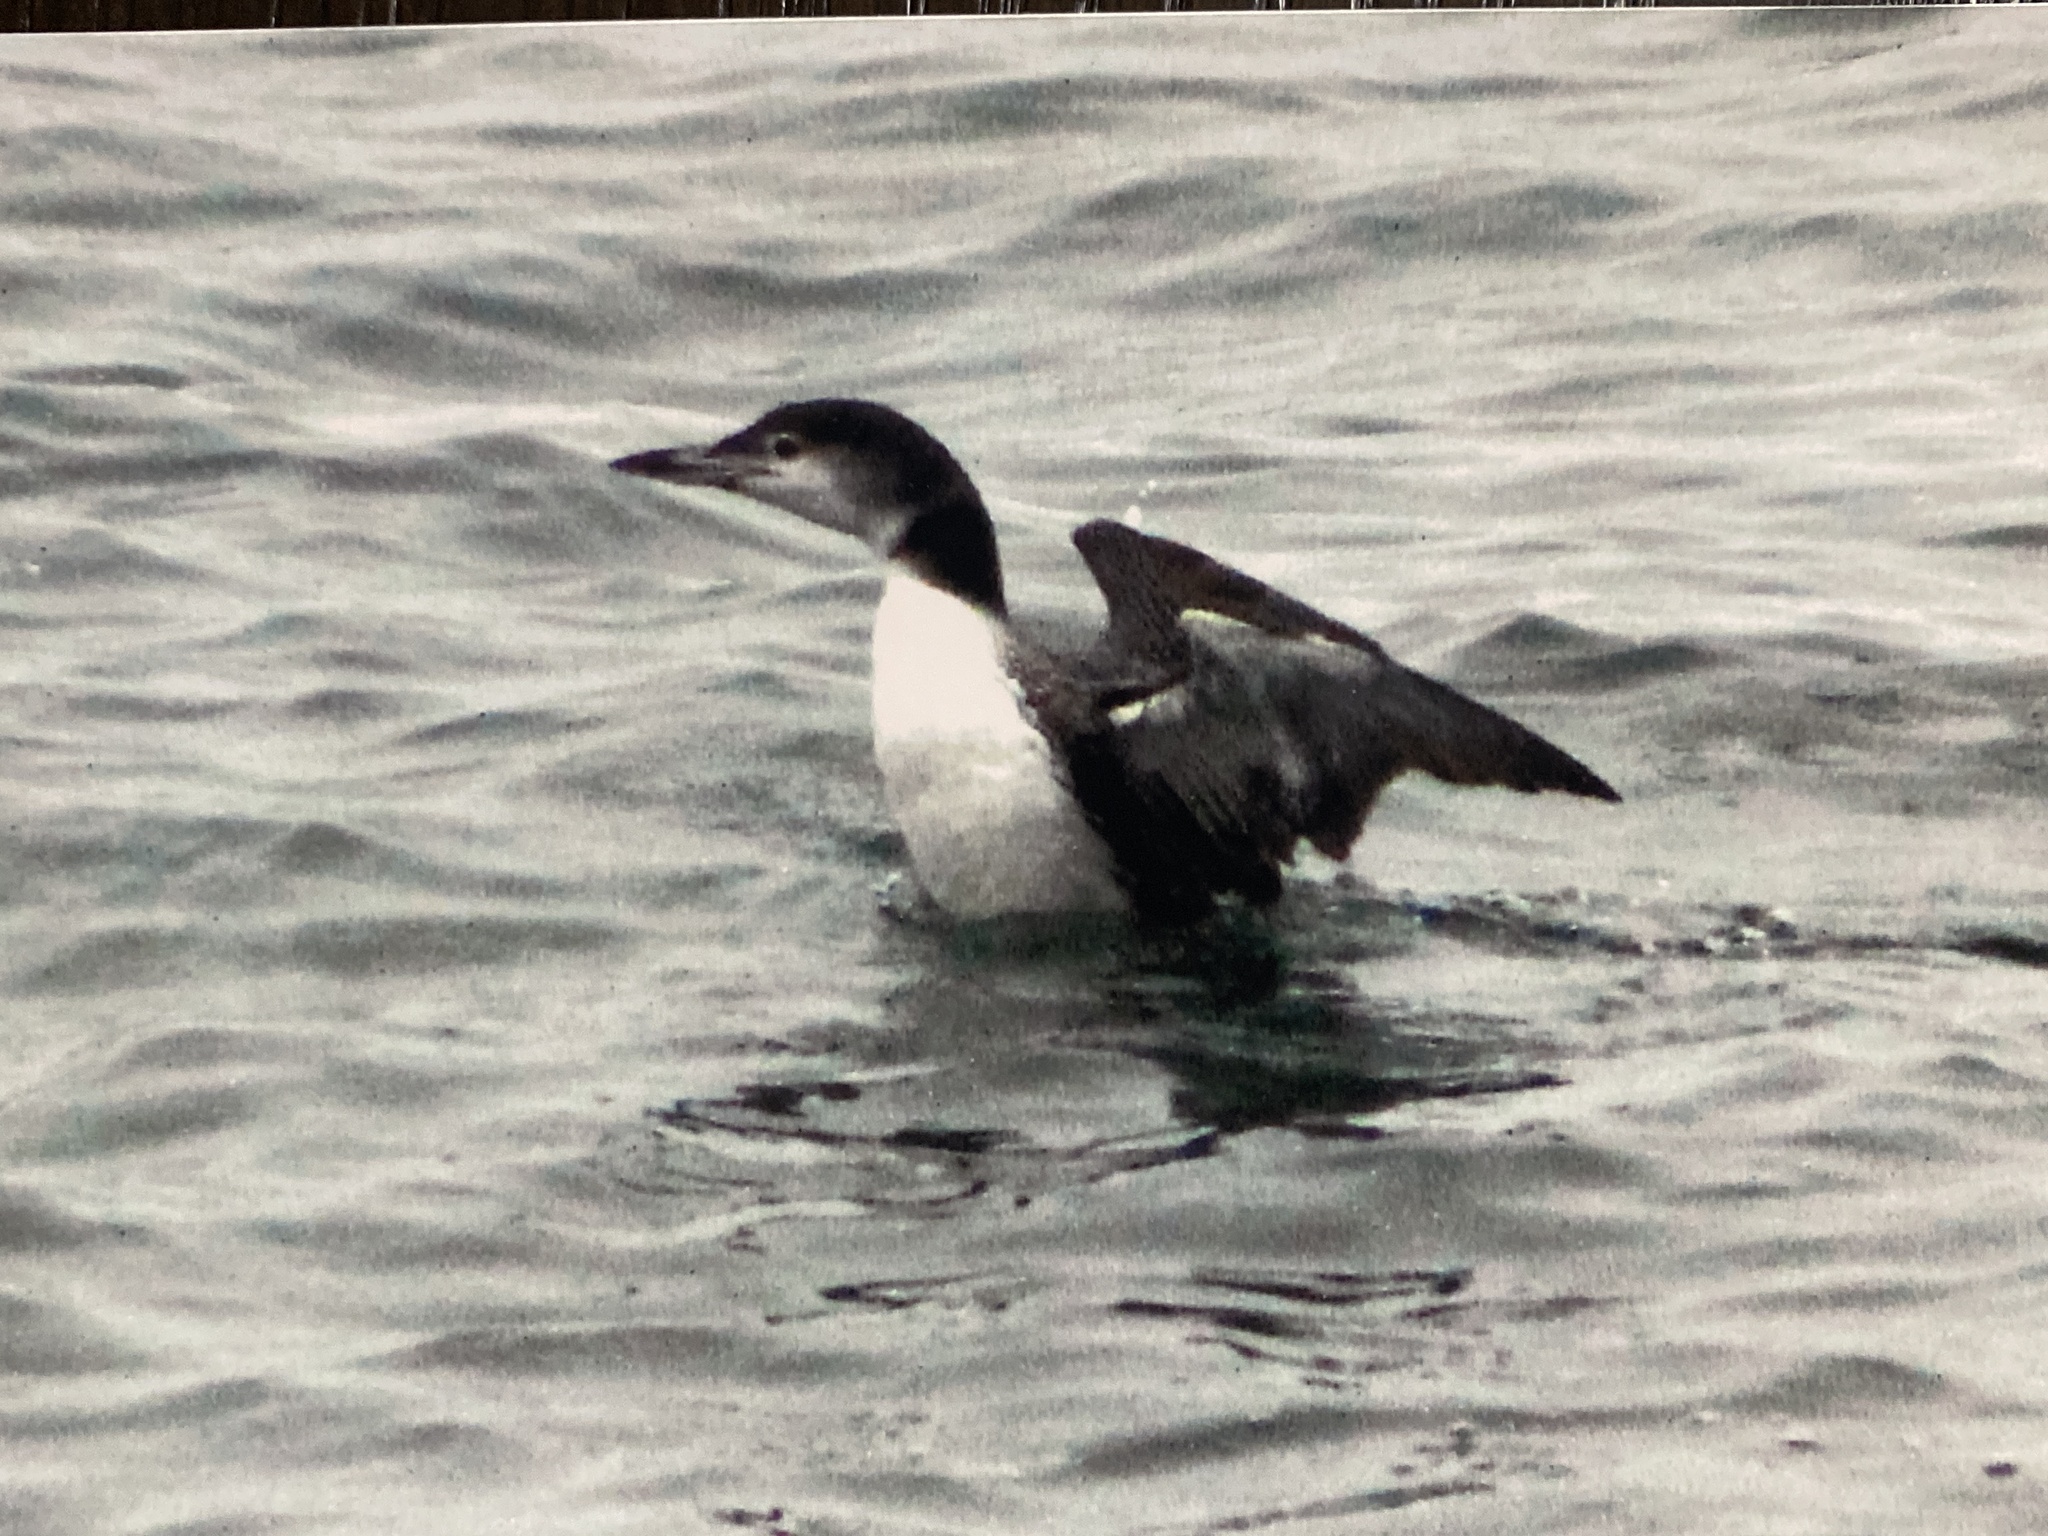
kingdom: Animalia
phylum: Chordata
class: Aves
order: Gaviiformes
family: Gaviidae
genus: Gavia
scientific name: Gavia immer
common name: Common loon
